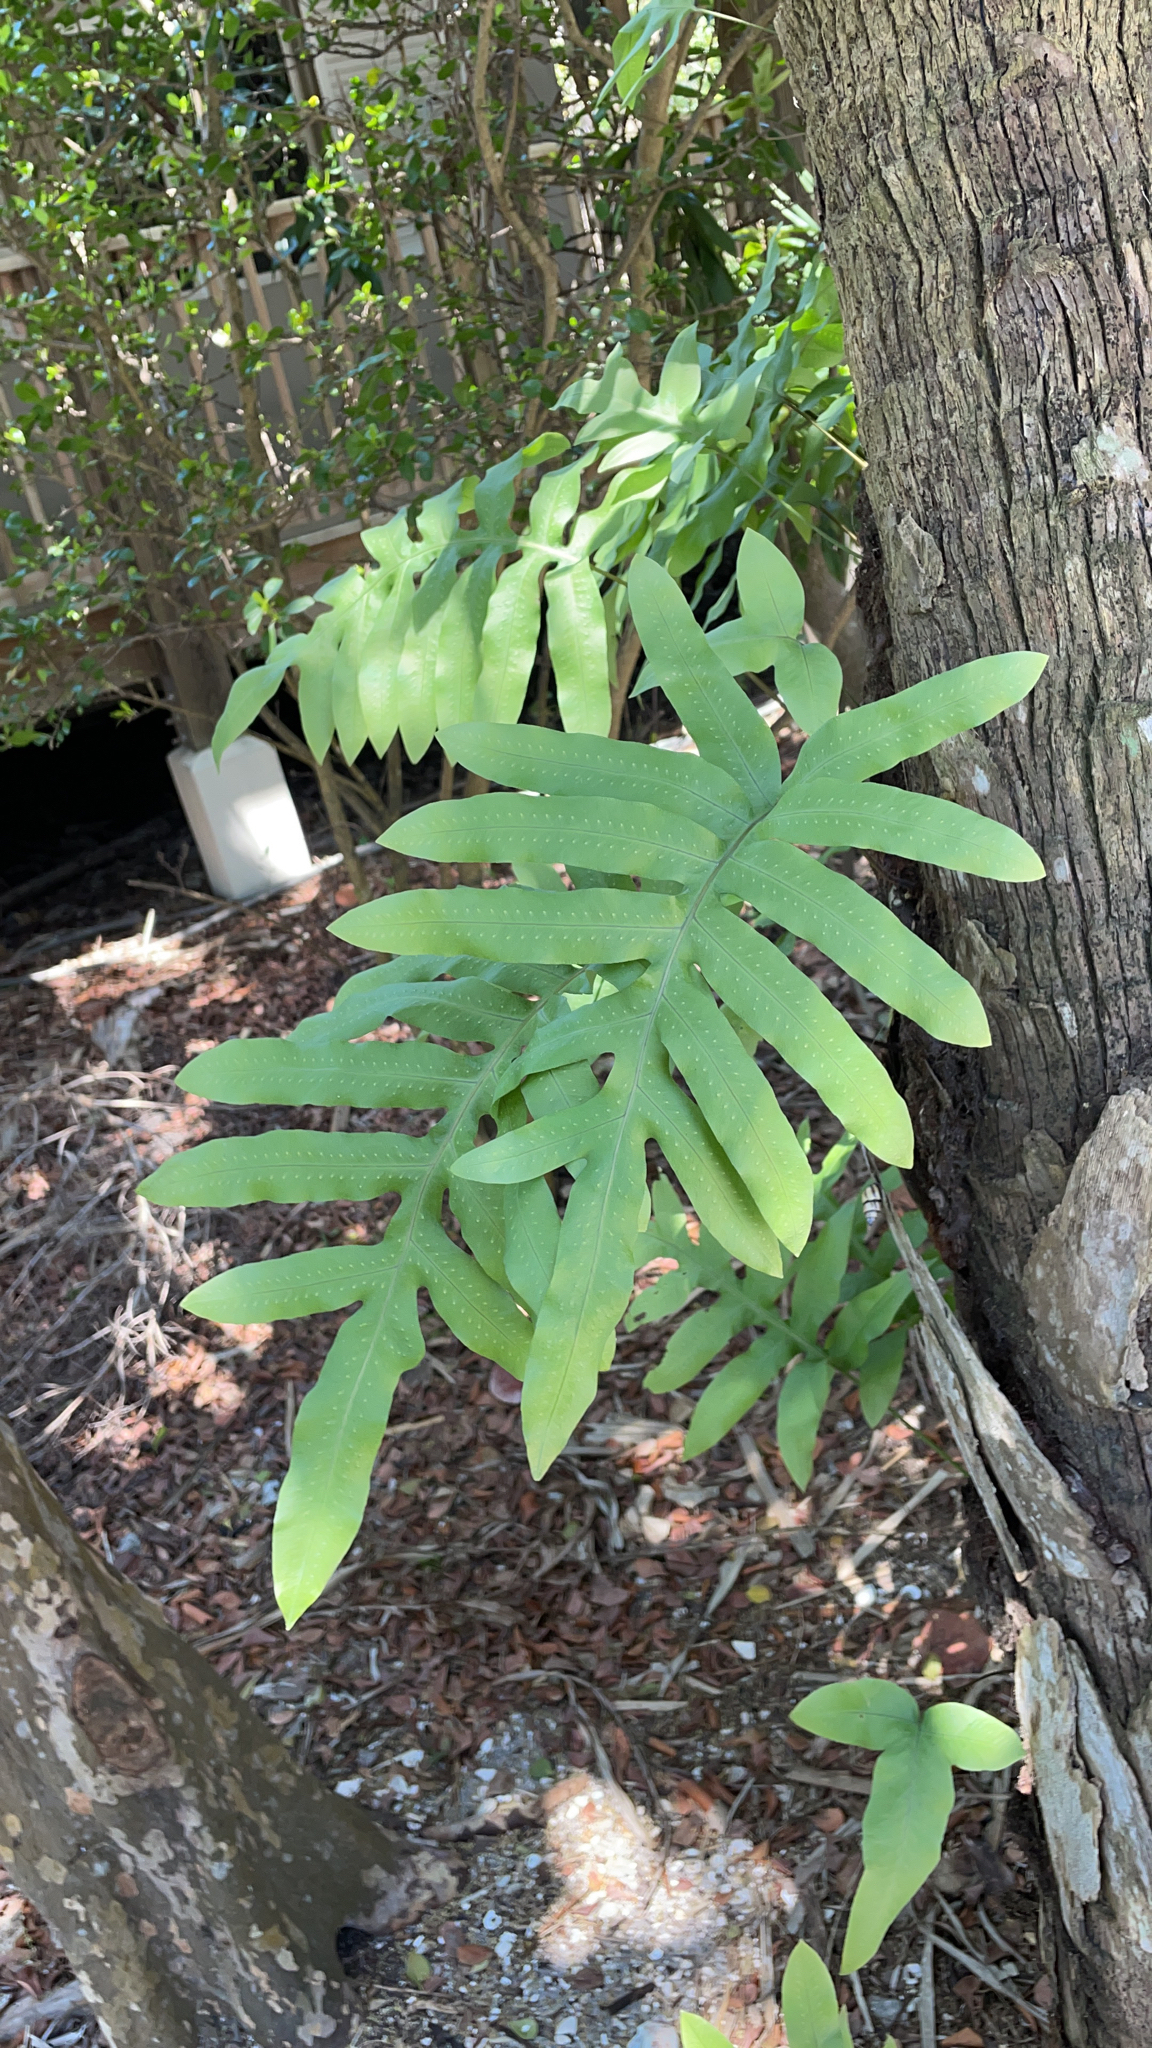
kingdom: Plantae
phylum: Tracheophyta
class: Polypodiopsida
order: Polypodiales
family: Polypodiaceae
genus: Phlebodium
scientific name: Phlebodium aureum
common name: Gold-foot fern
